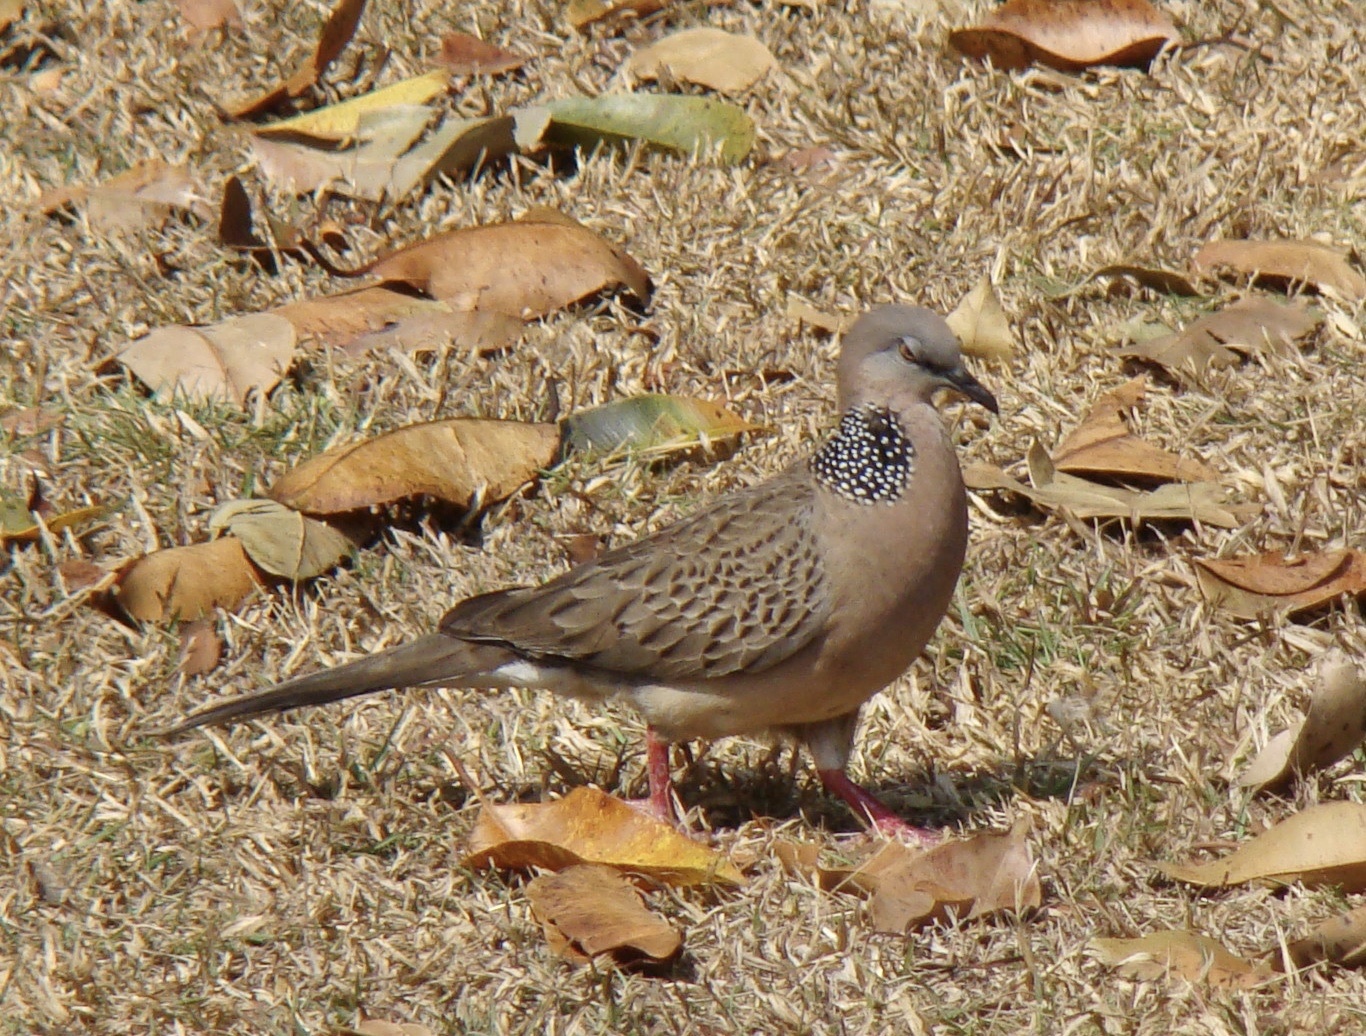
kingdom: Animalia
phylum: Chordata
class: Aves
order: Columbiformes
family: Columbidae
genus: Spilopelia
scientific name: Spilopelia chinensis
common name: Spotted dove
